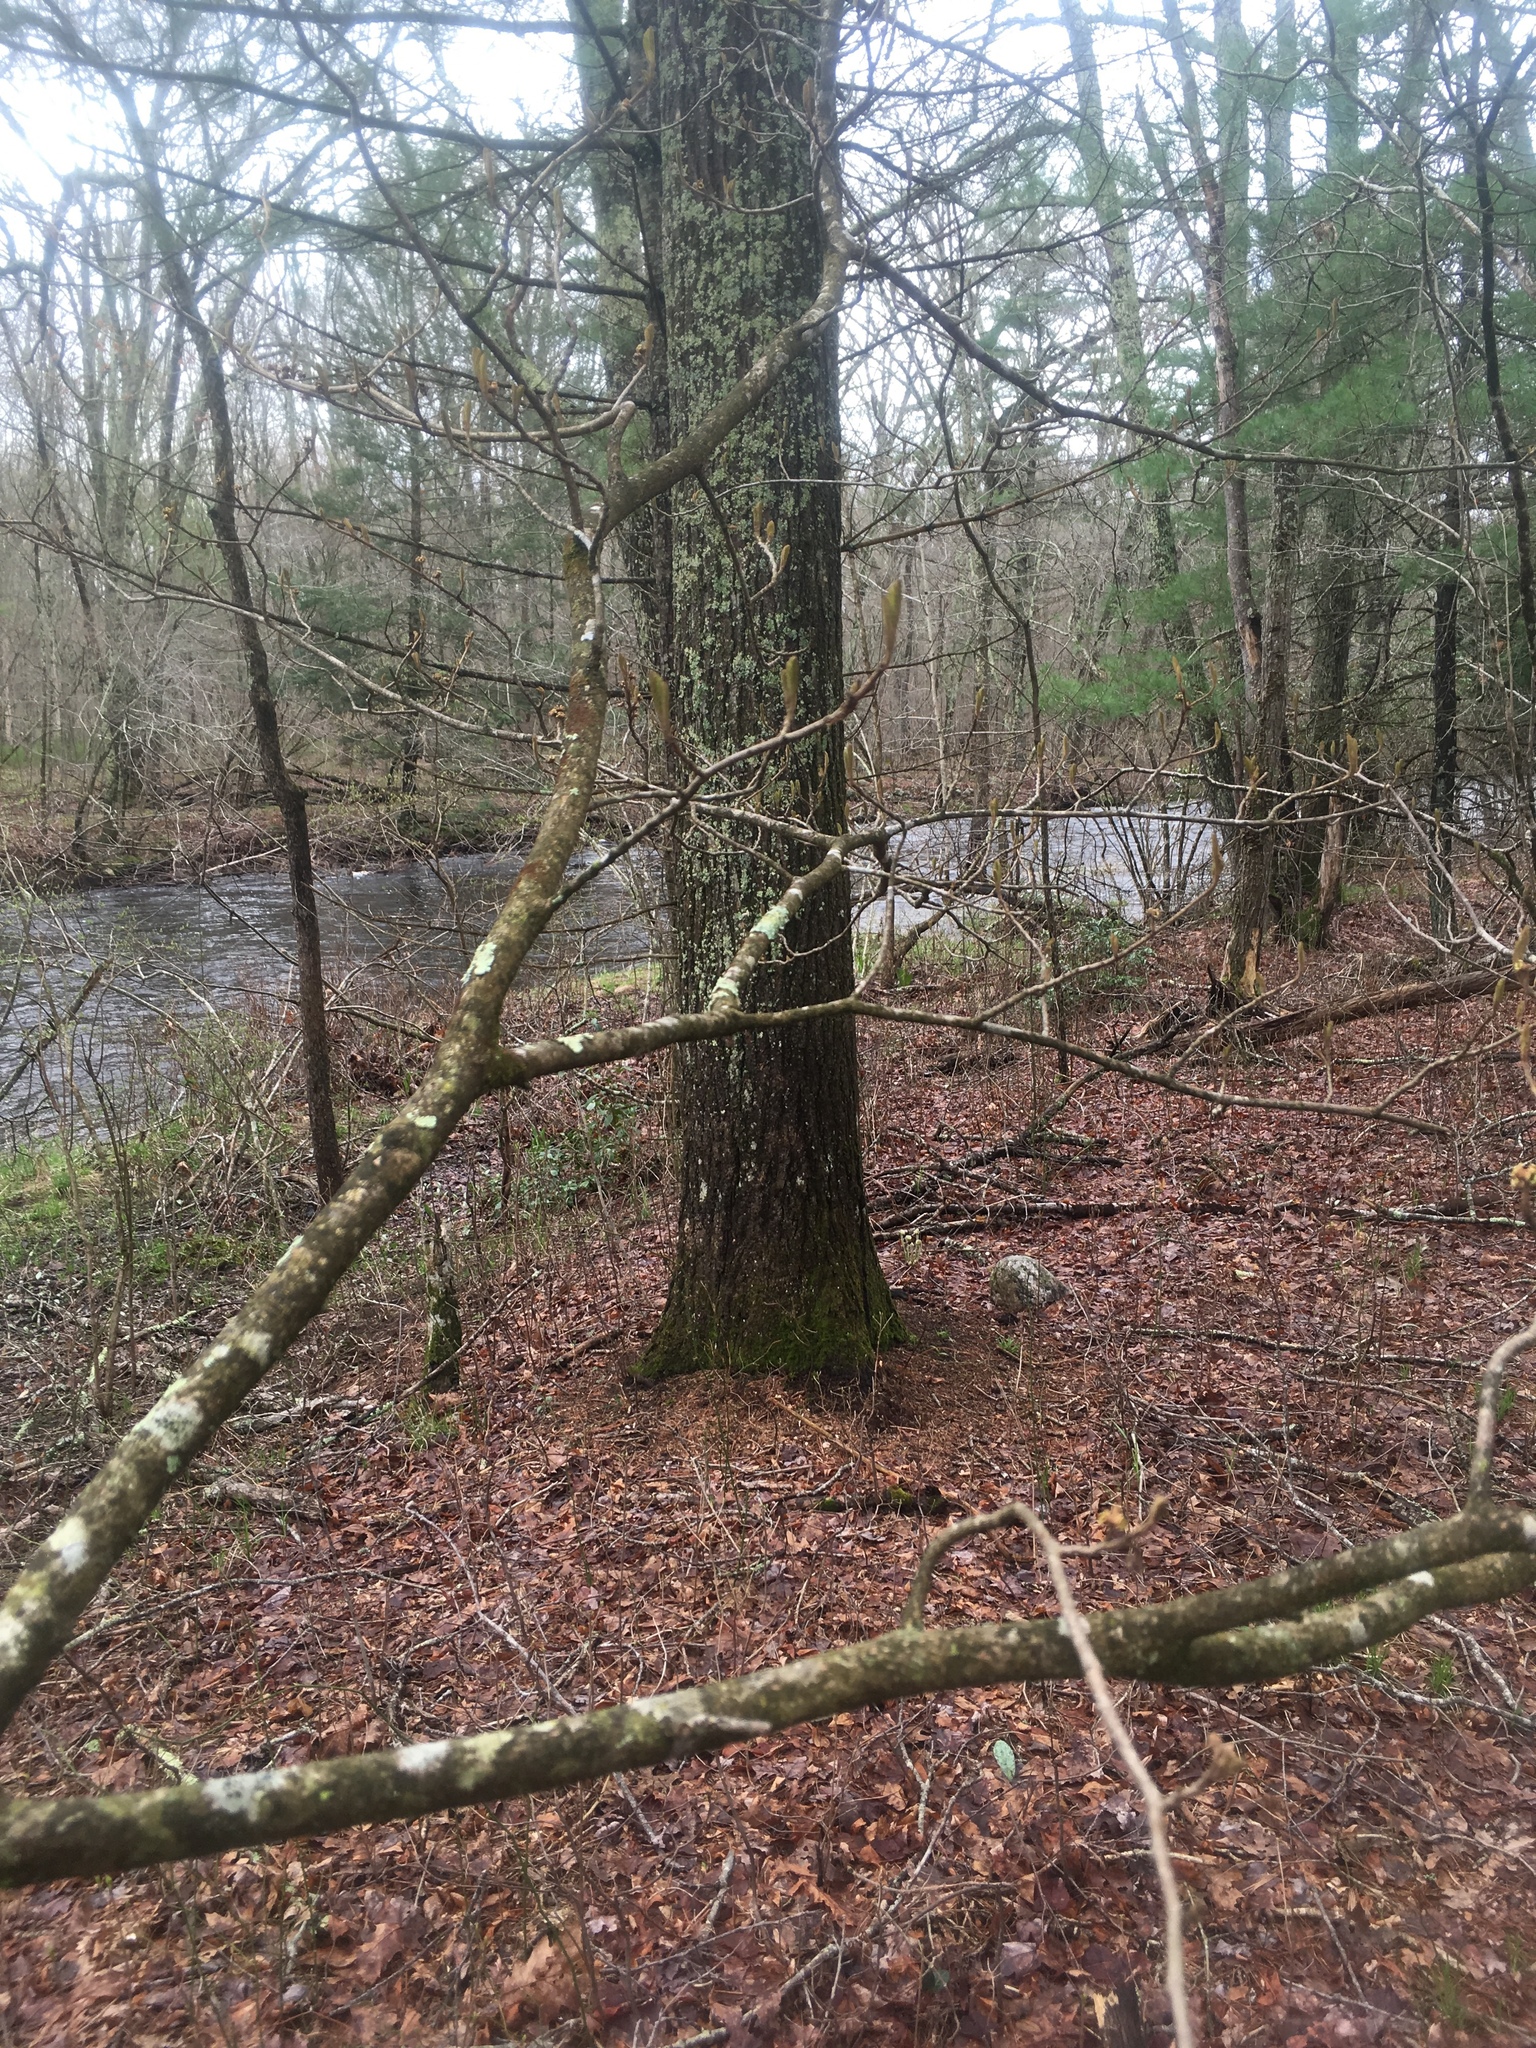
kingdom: Plantae
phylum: Tracheophyta
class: Magnoliopsida
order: Saxifragales
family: Hamamelidaceae
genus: Hamamelis
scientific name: Hamamelis virginiana
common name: Witch-hazel
